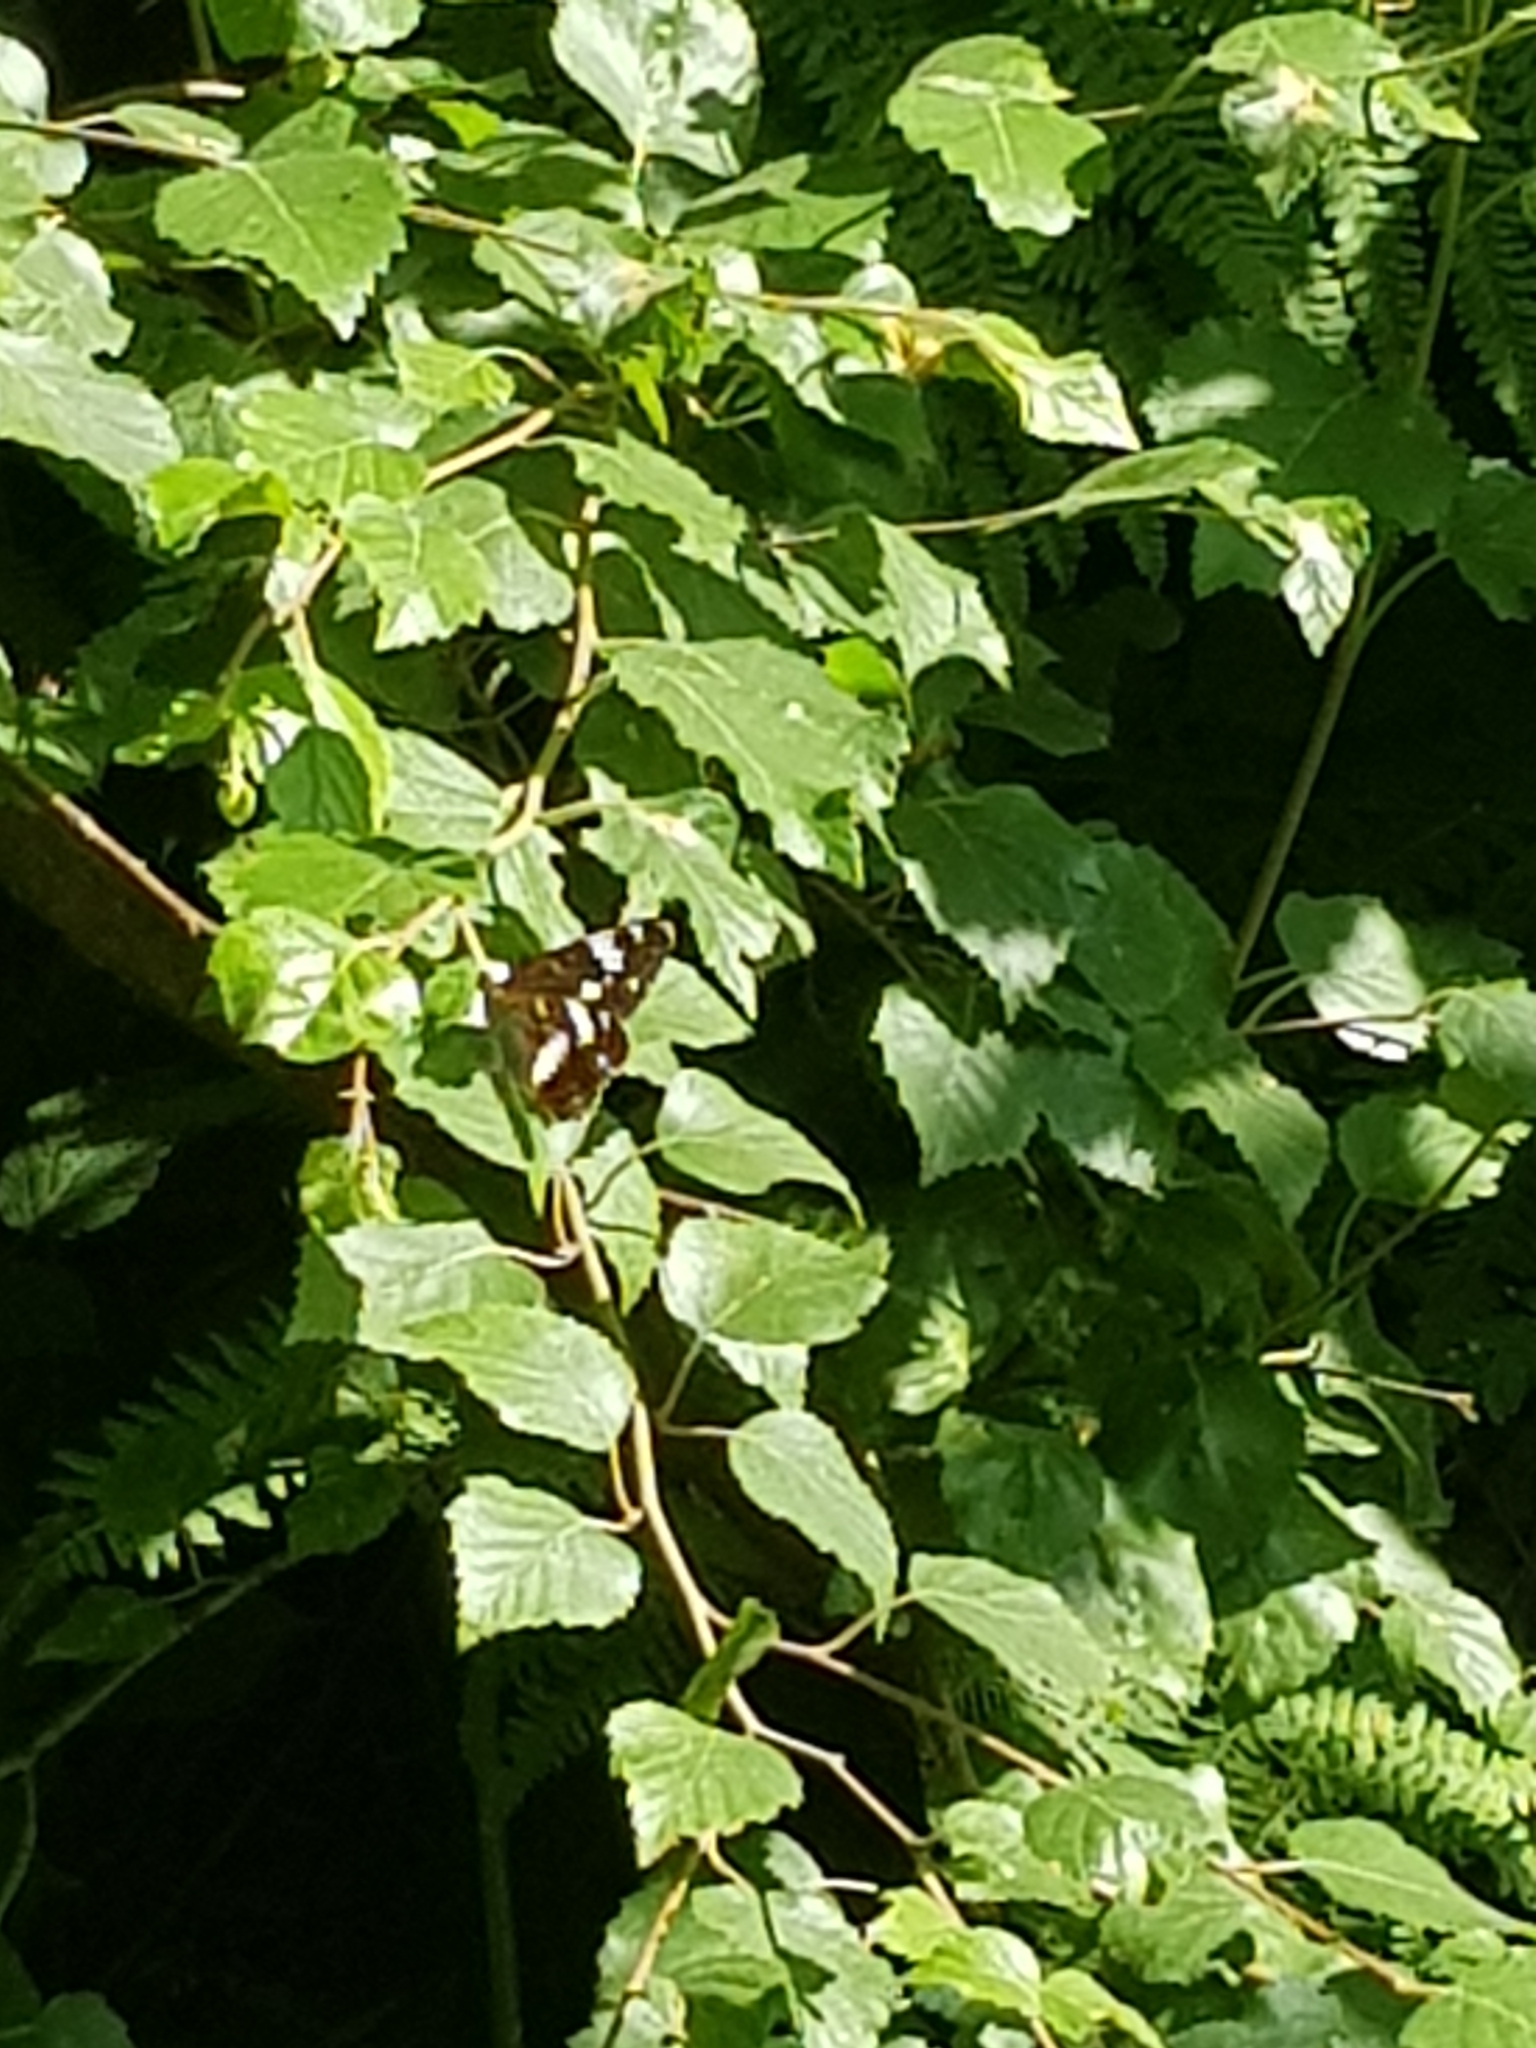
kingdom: Animalia
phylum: Arthropoda
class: Insecta
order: Lepidoptera
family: Nymphalidae
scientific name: Nymphalidae
